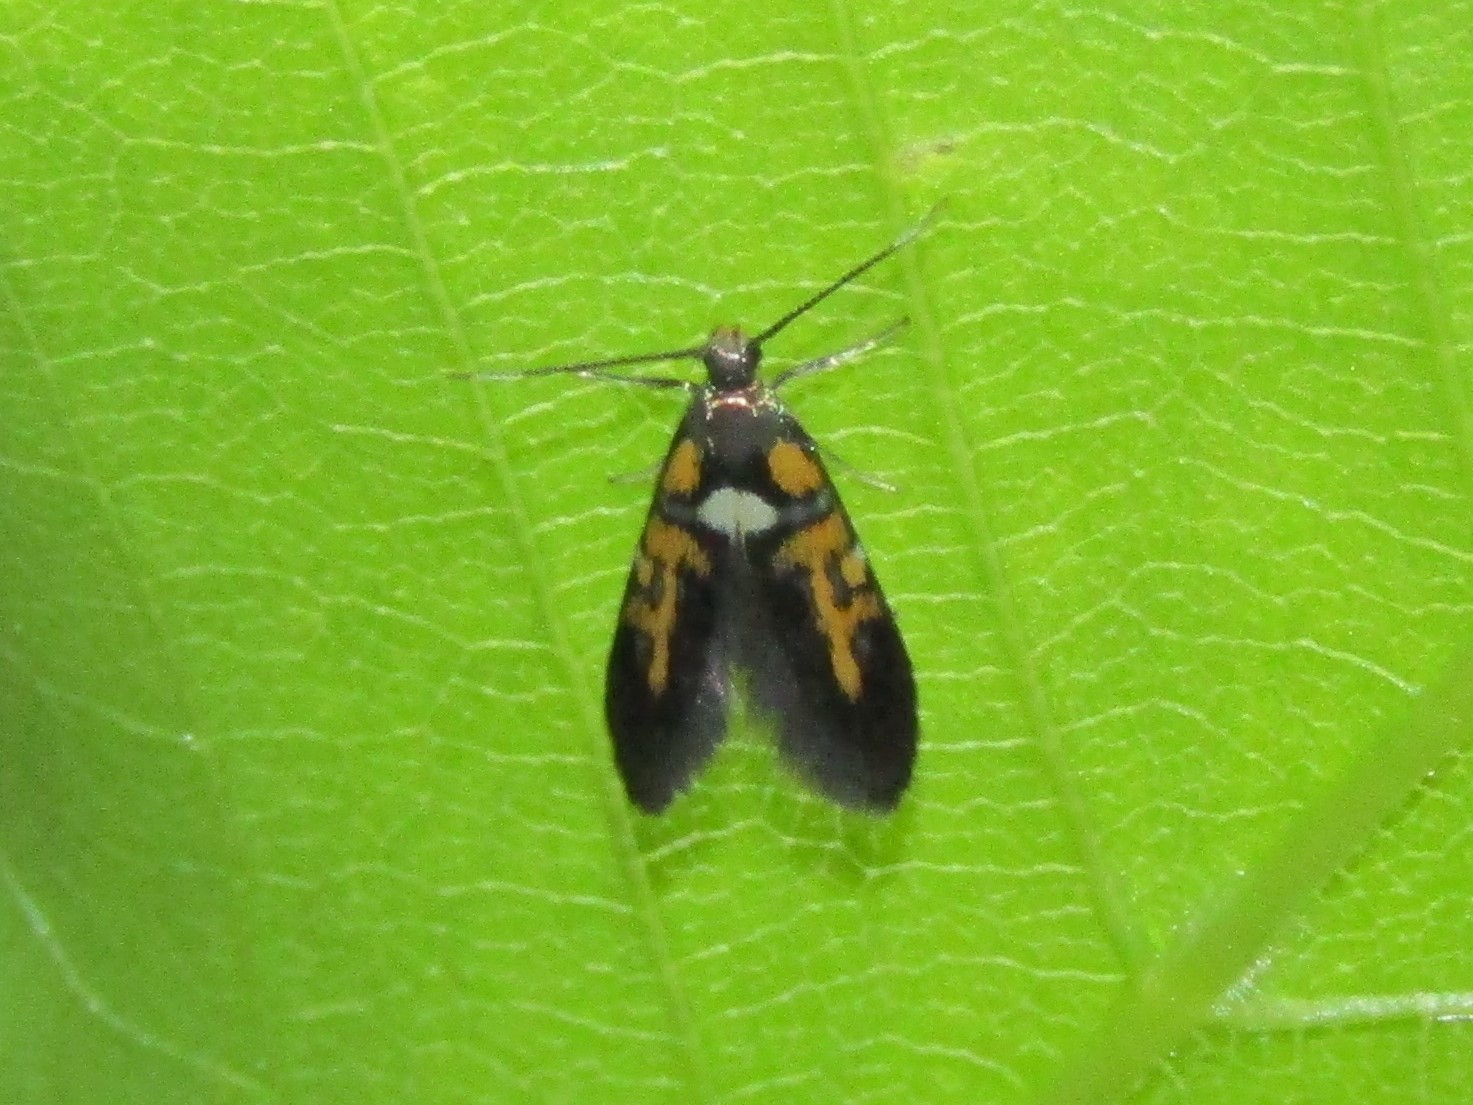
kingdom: Animalia
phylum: Arthropoda
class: Insecta
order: Lepidoptera
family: Oecophoridae
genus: Fabiola
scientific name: Fabiola edithella
